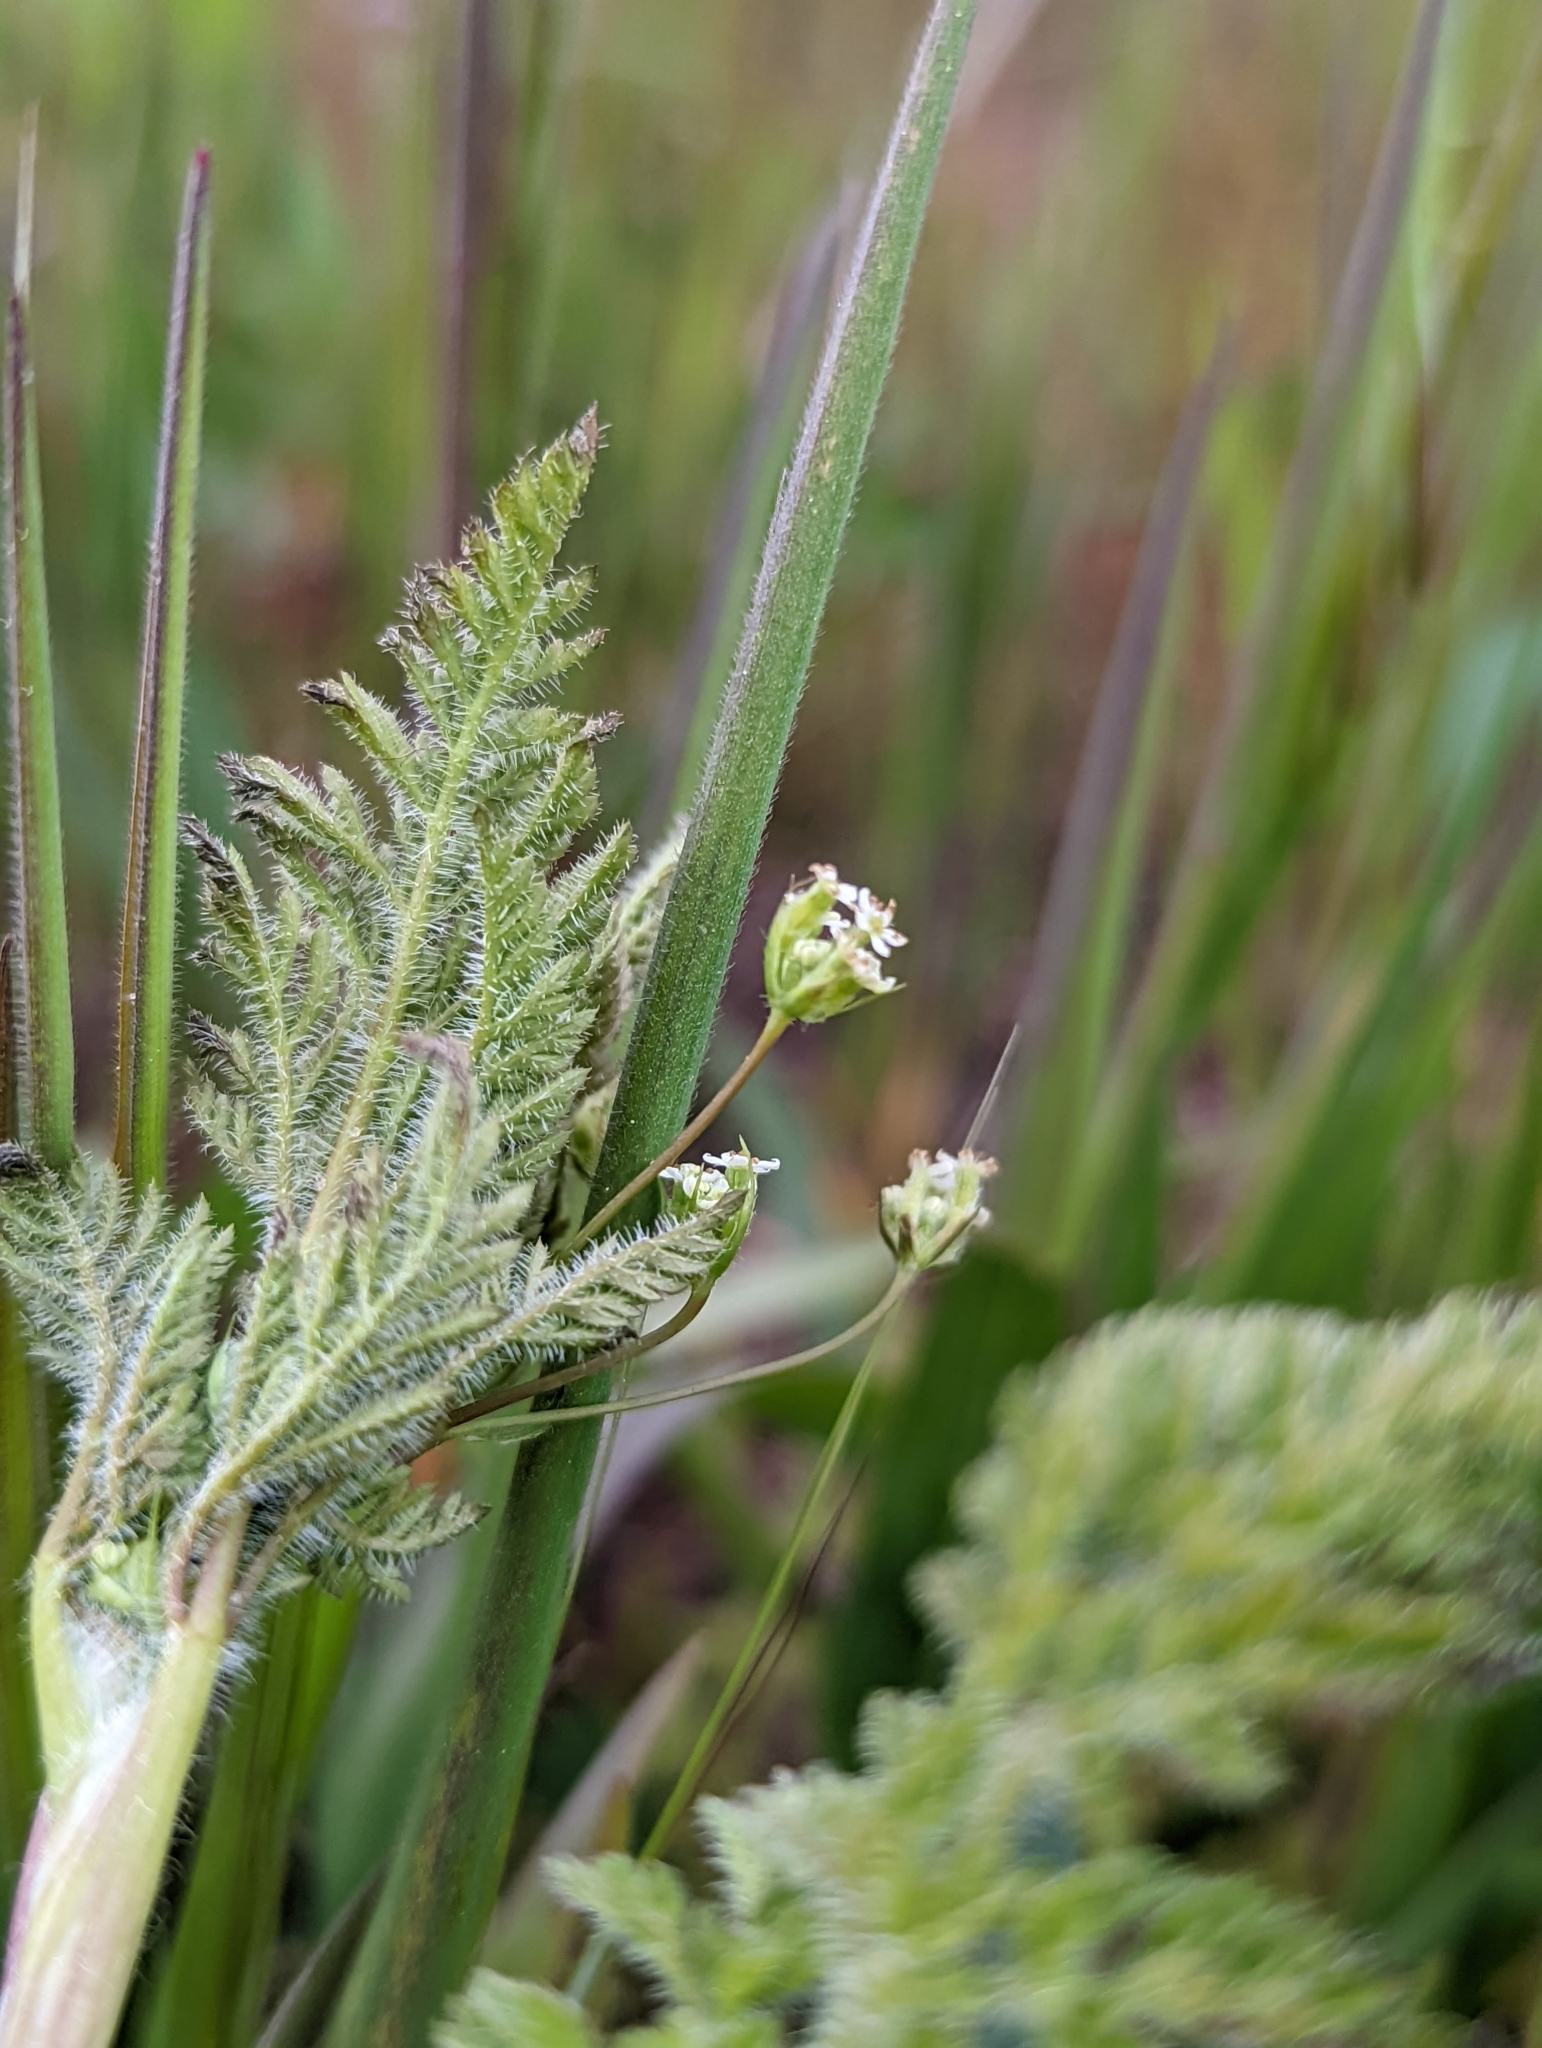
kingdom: Plantae
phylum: Tracheophyta
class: Magnoliopsida
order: Apiales
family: Apiaceae
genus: Anthriscus
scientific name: Anthriscus caucalis
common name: Bur chervil
